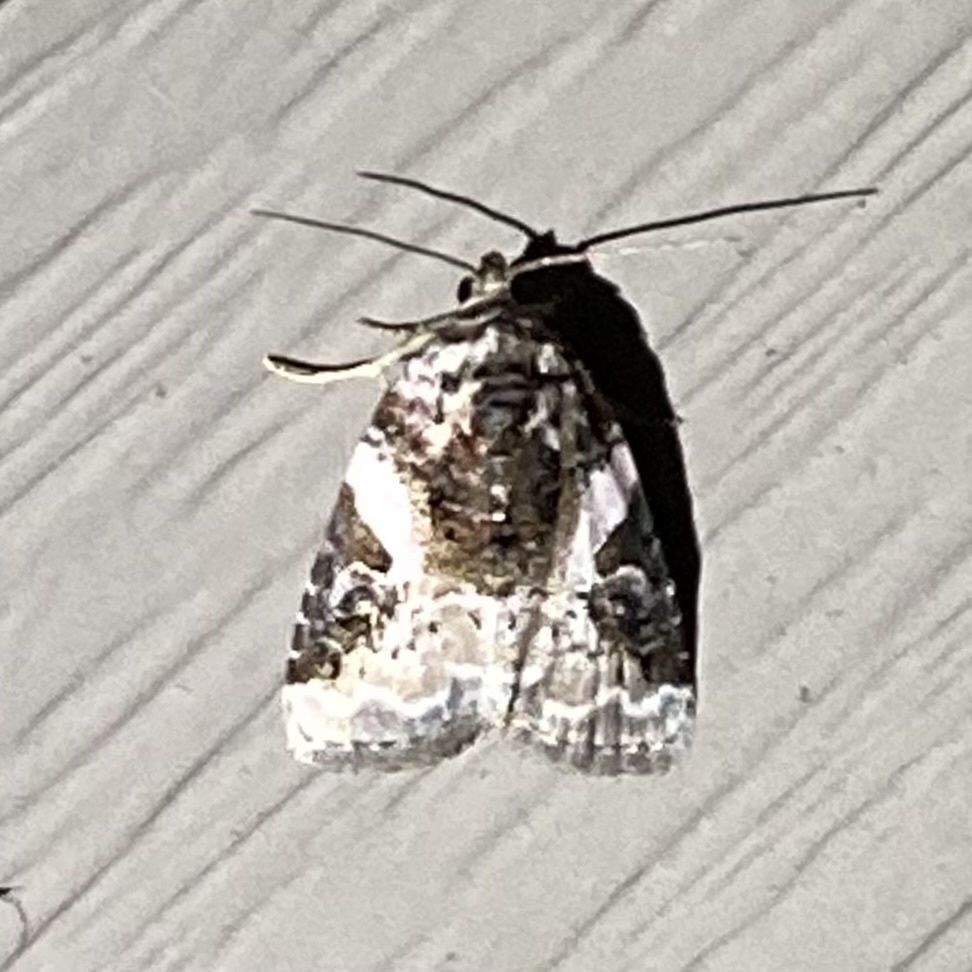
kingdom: Animalia
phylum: Arthropoda
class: Insecta
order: Lepidoptera
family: Noctuidae
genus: Pseudeustrotia
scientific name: Pseudeustrotia carneola
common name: Pink-barred lithacodia moth
